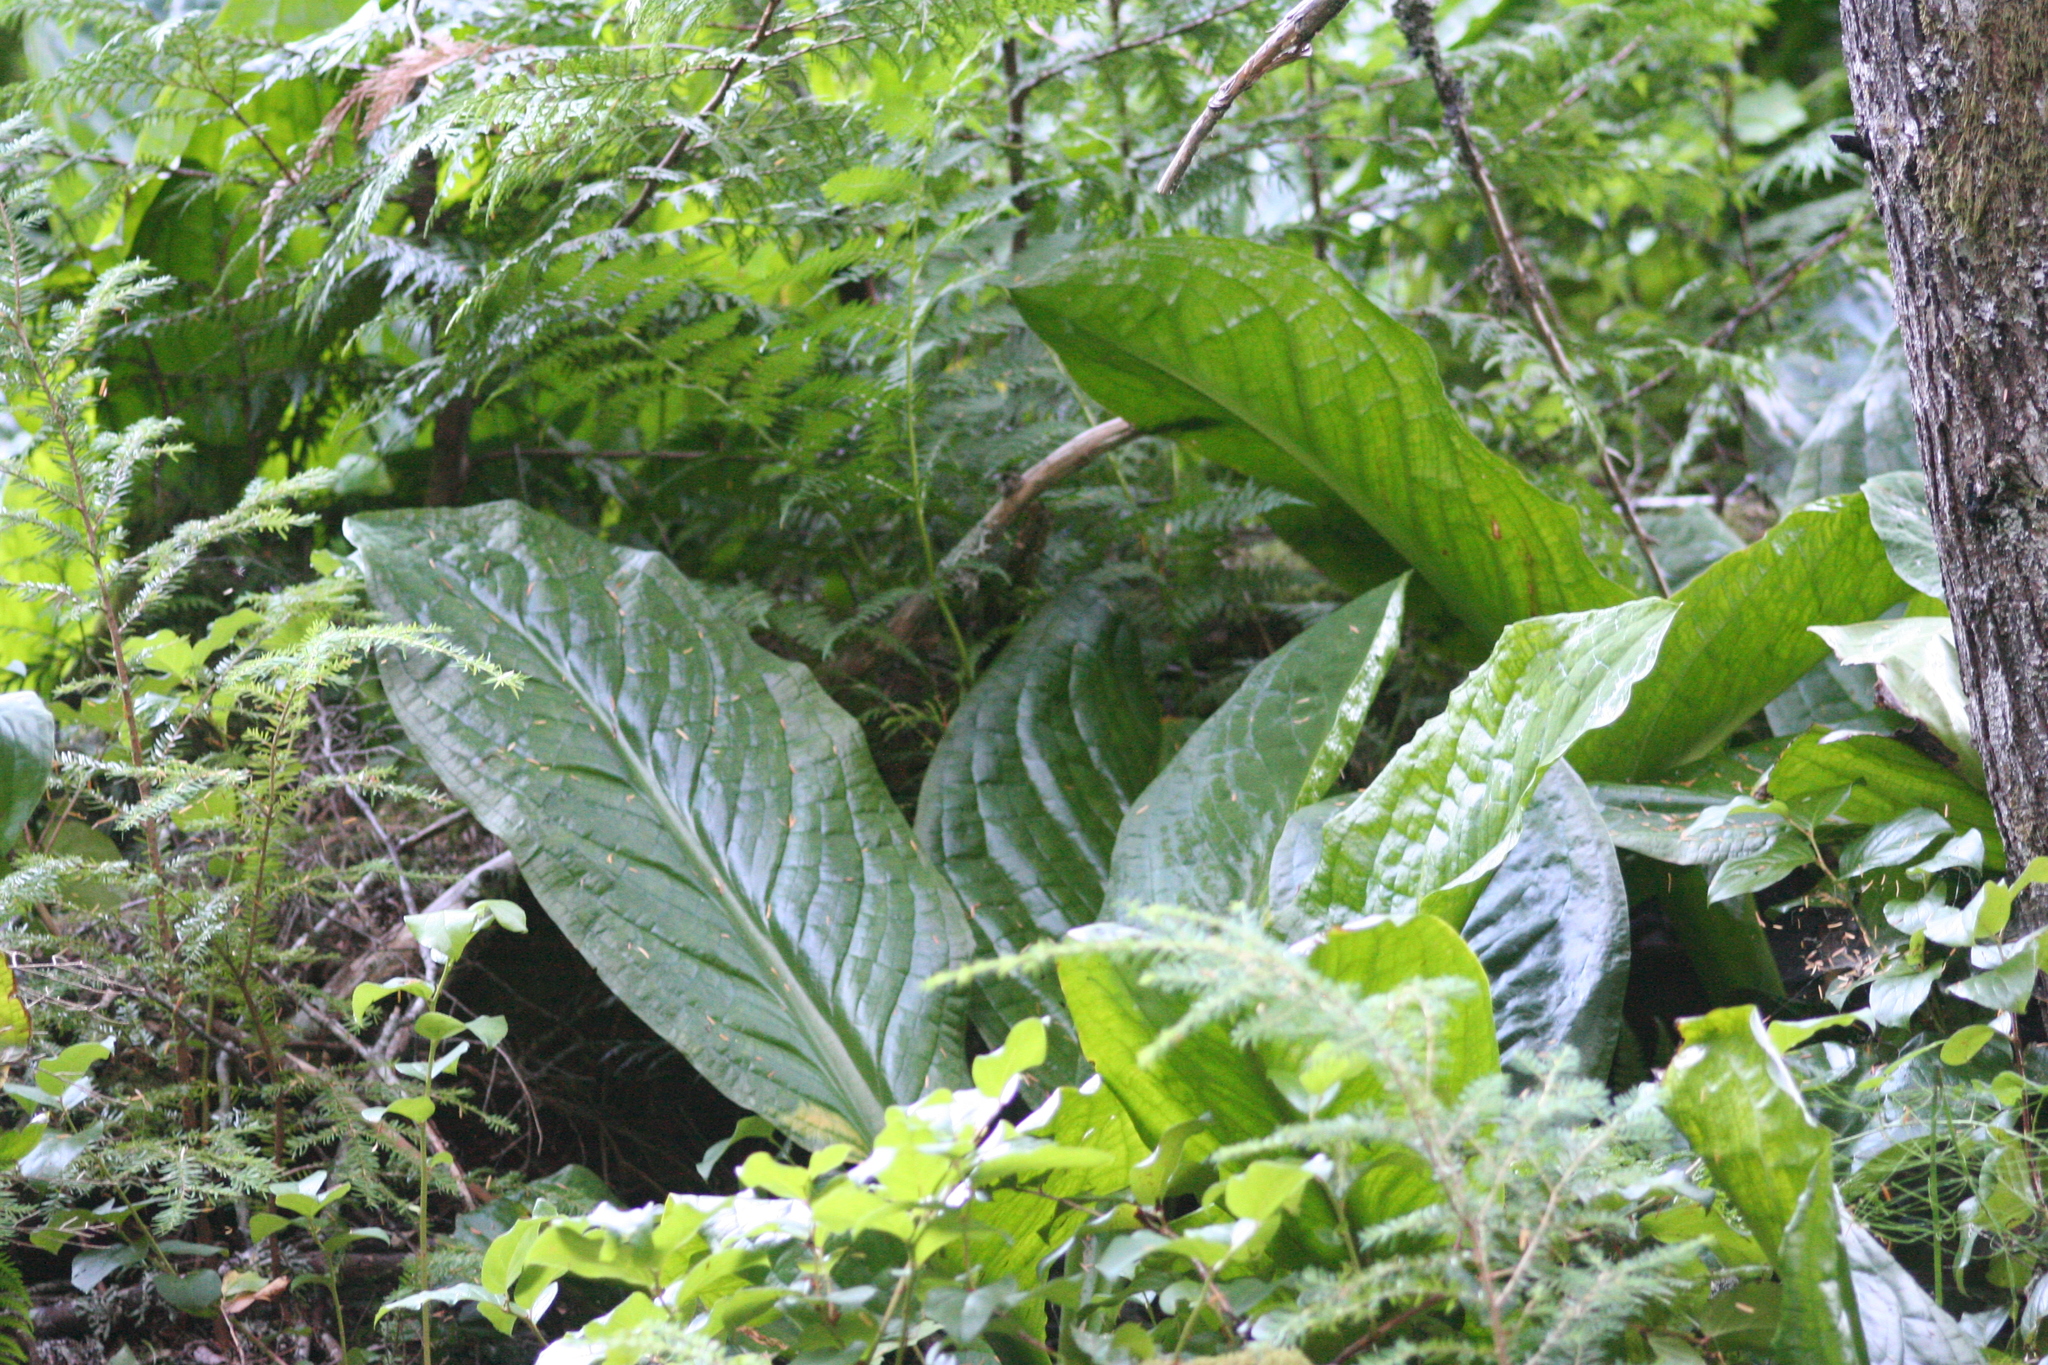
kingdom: Plantae
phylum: Tracheophyta
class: Liliopsida
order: Alismatales
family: Araceae
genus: Lysichiton
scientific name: Lysichiton americanus
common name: American skunk cabbage
